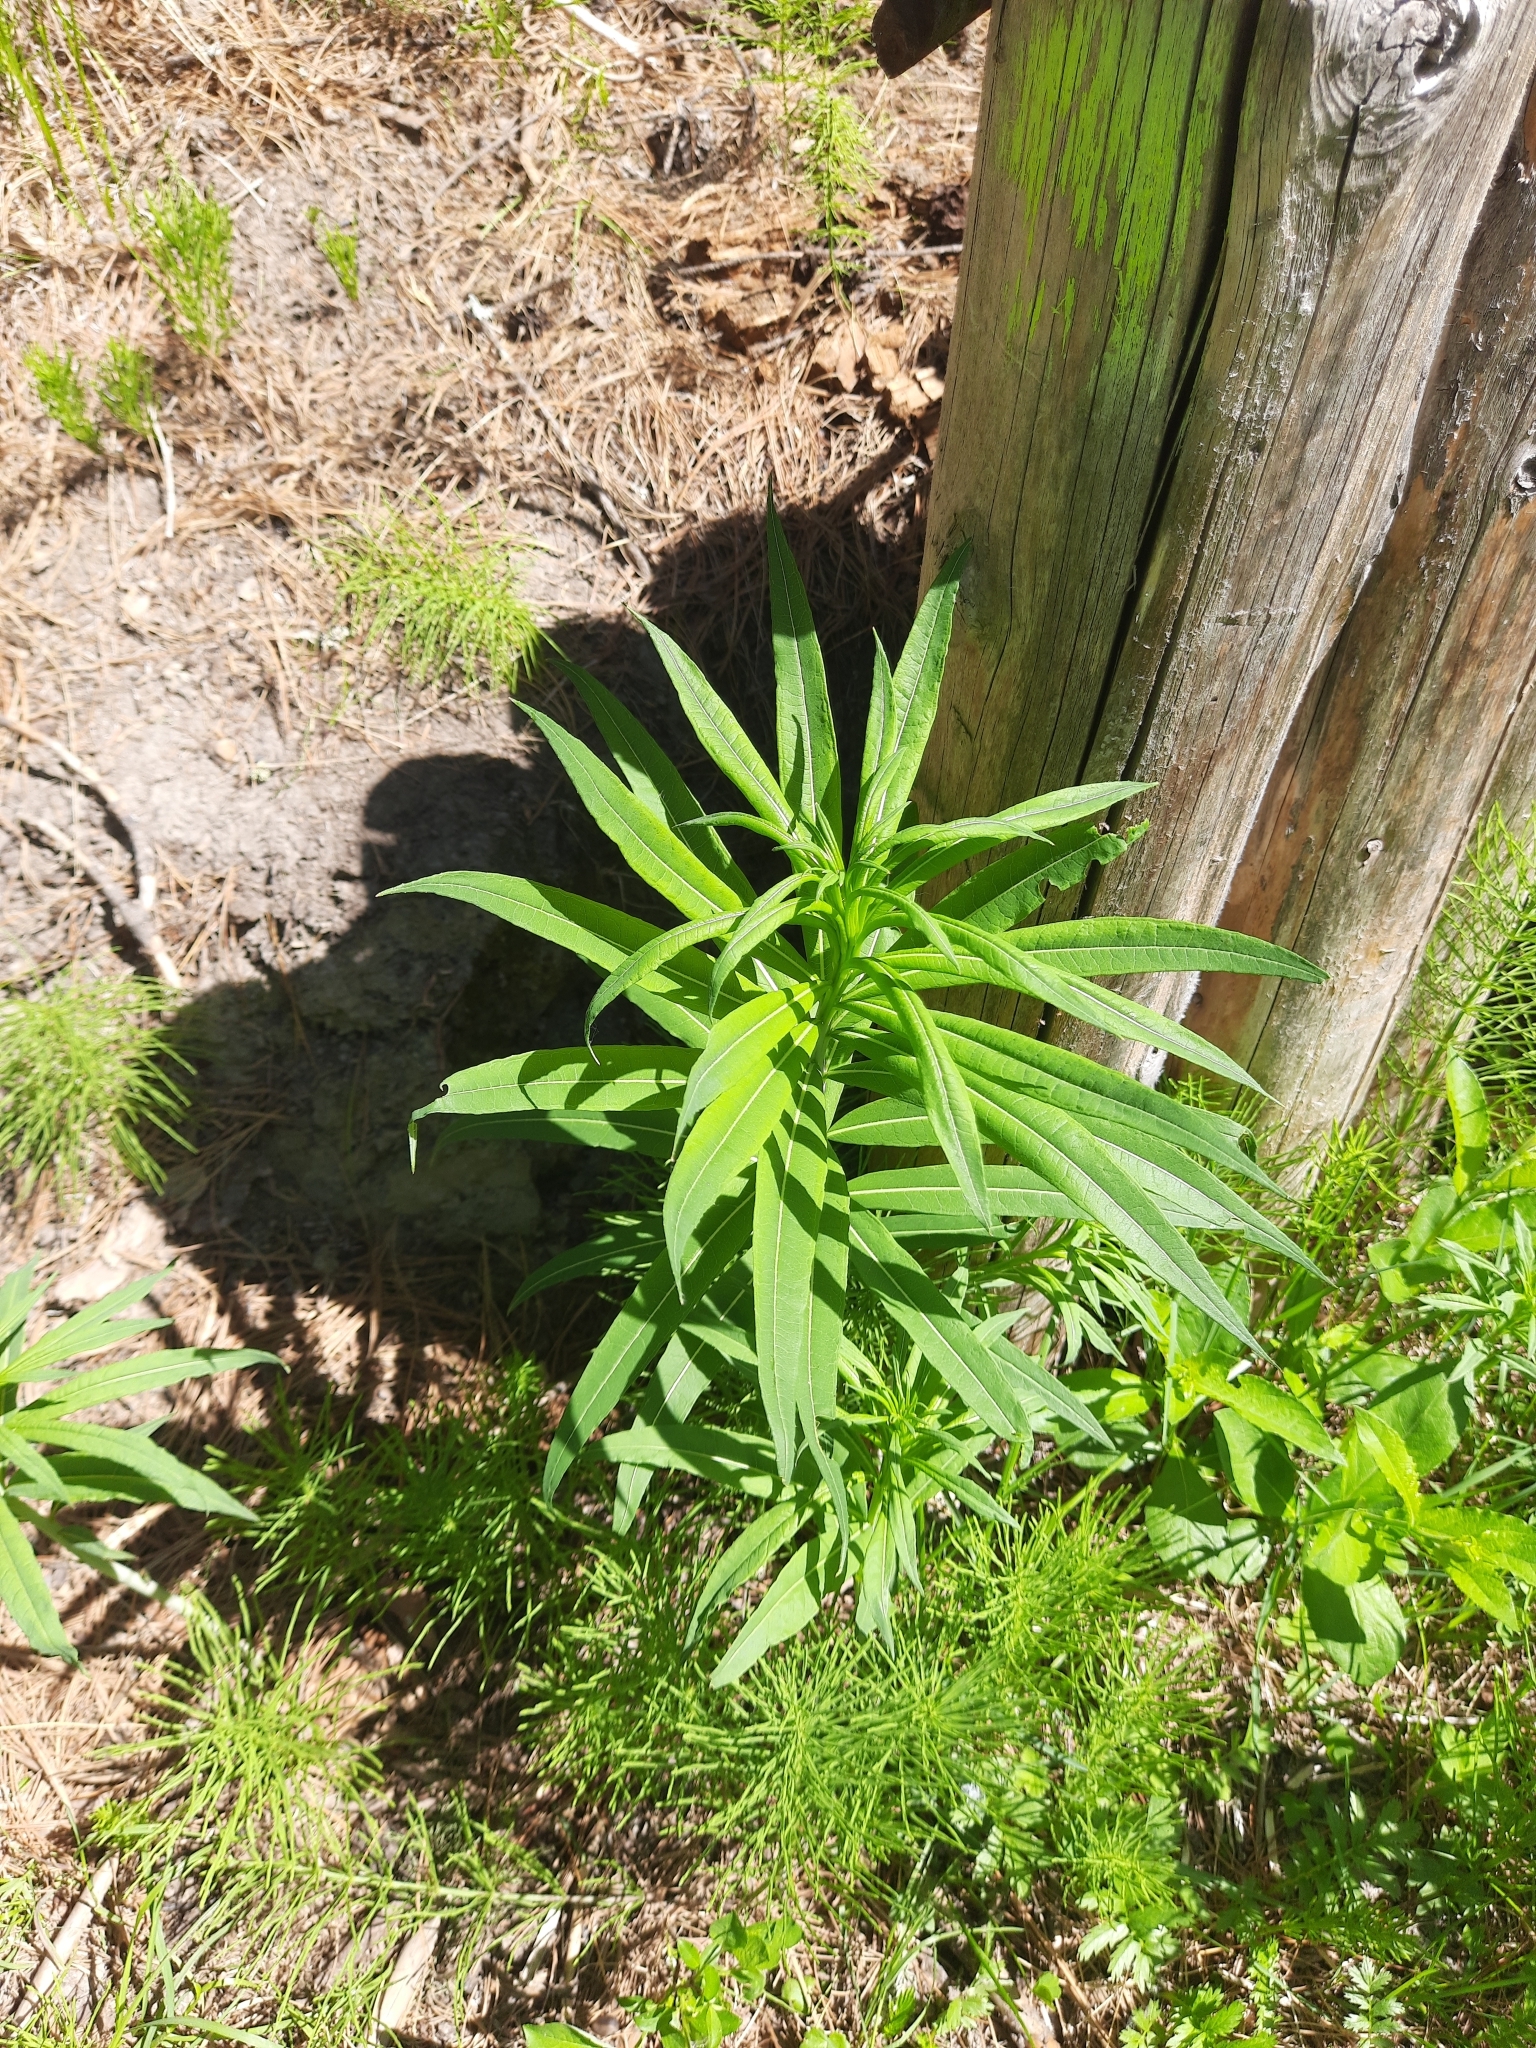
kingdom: Plantae
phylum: Tracheophyta
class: Magnoliopsida
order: Myrtales
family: Onagraceae
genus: Chamaenerion
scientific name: Chamaenerion angustifolium
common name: Fireweed
